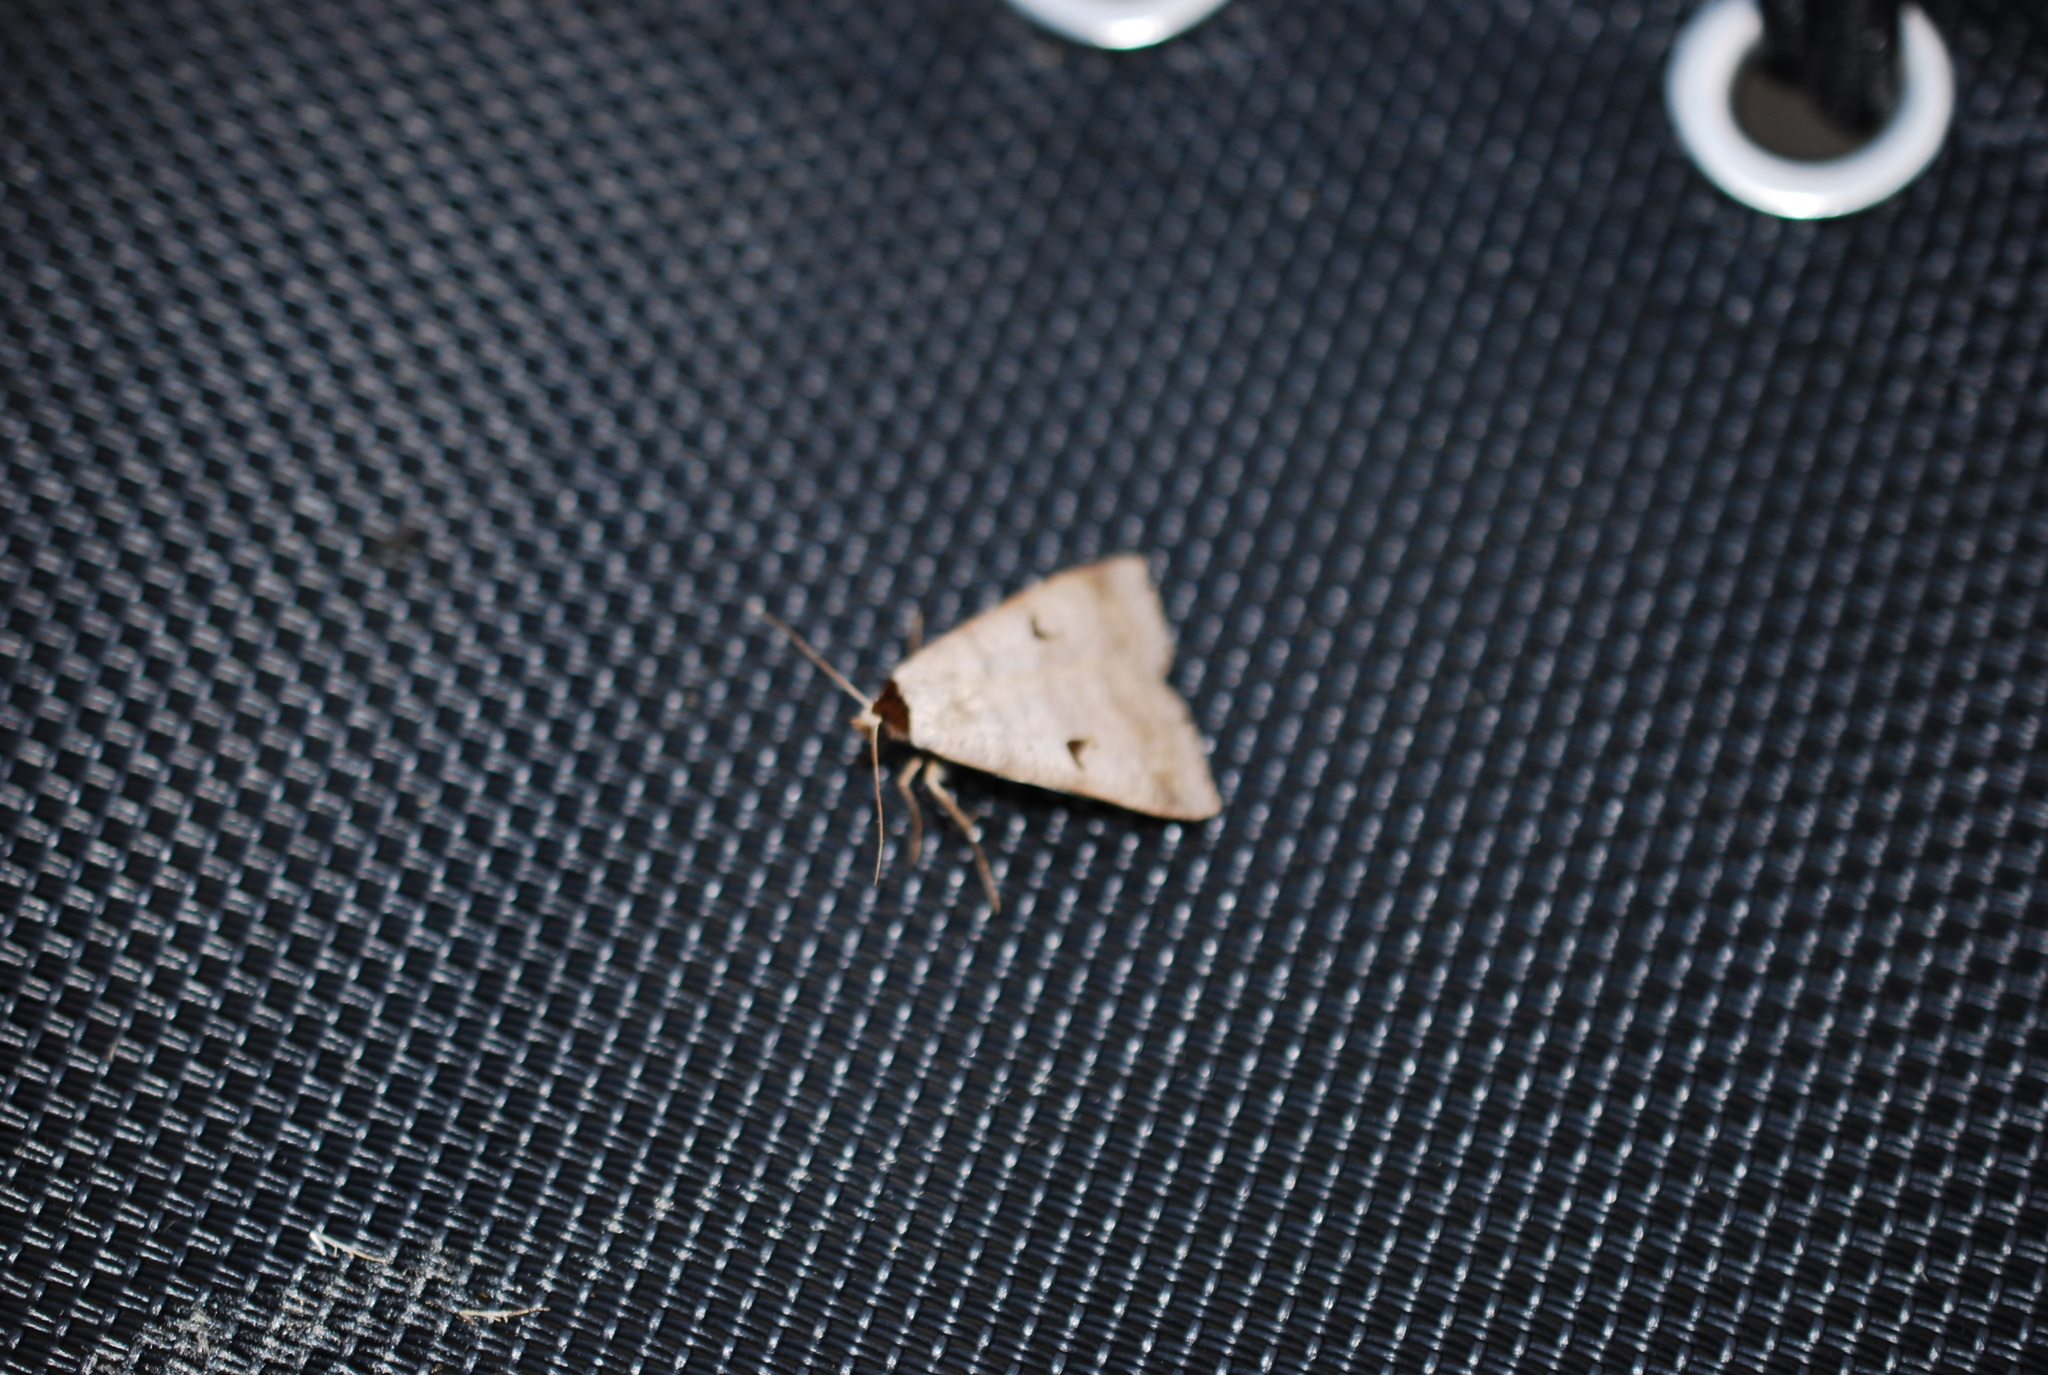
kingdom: Animalia
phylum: Arthropoda
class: Insecta
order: Lepidoptera
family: Erebidae
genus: Lygephila
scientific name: Lygephila pastinum
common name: Blackneck
